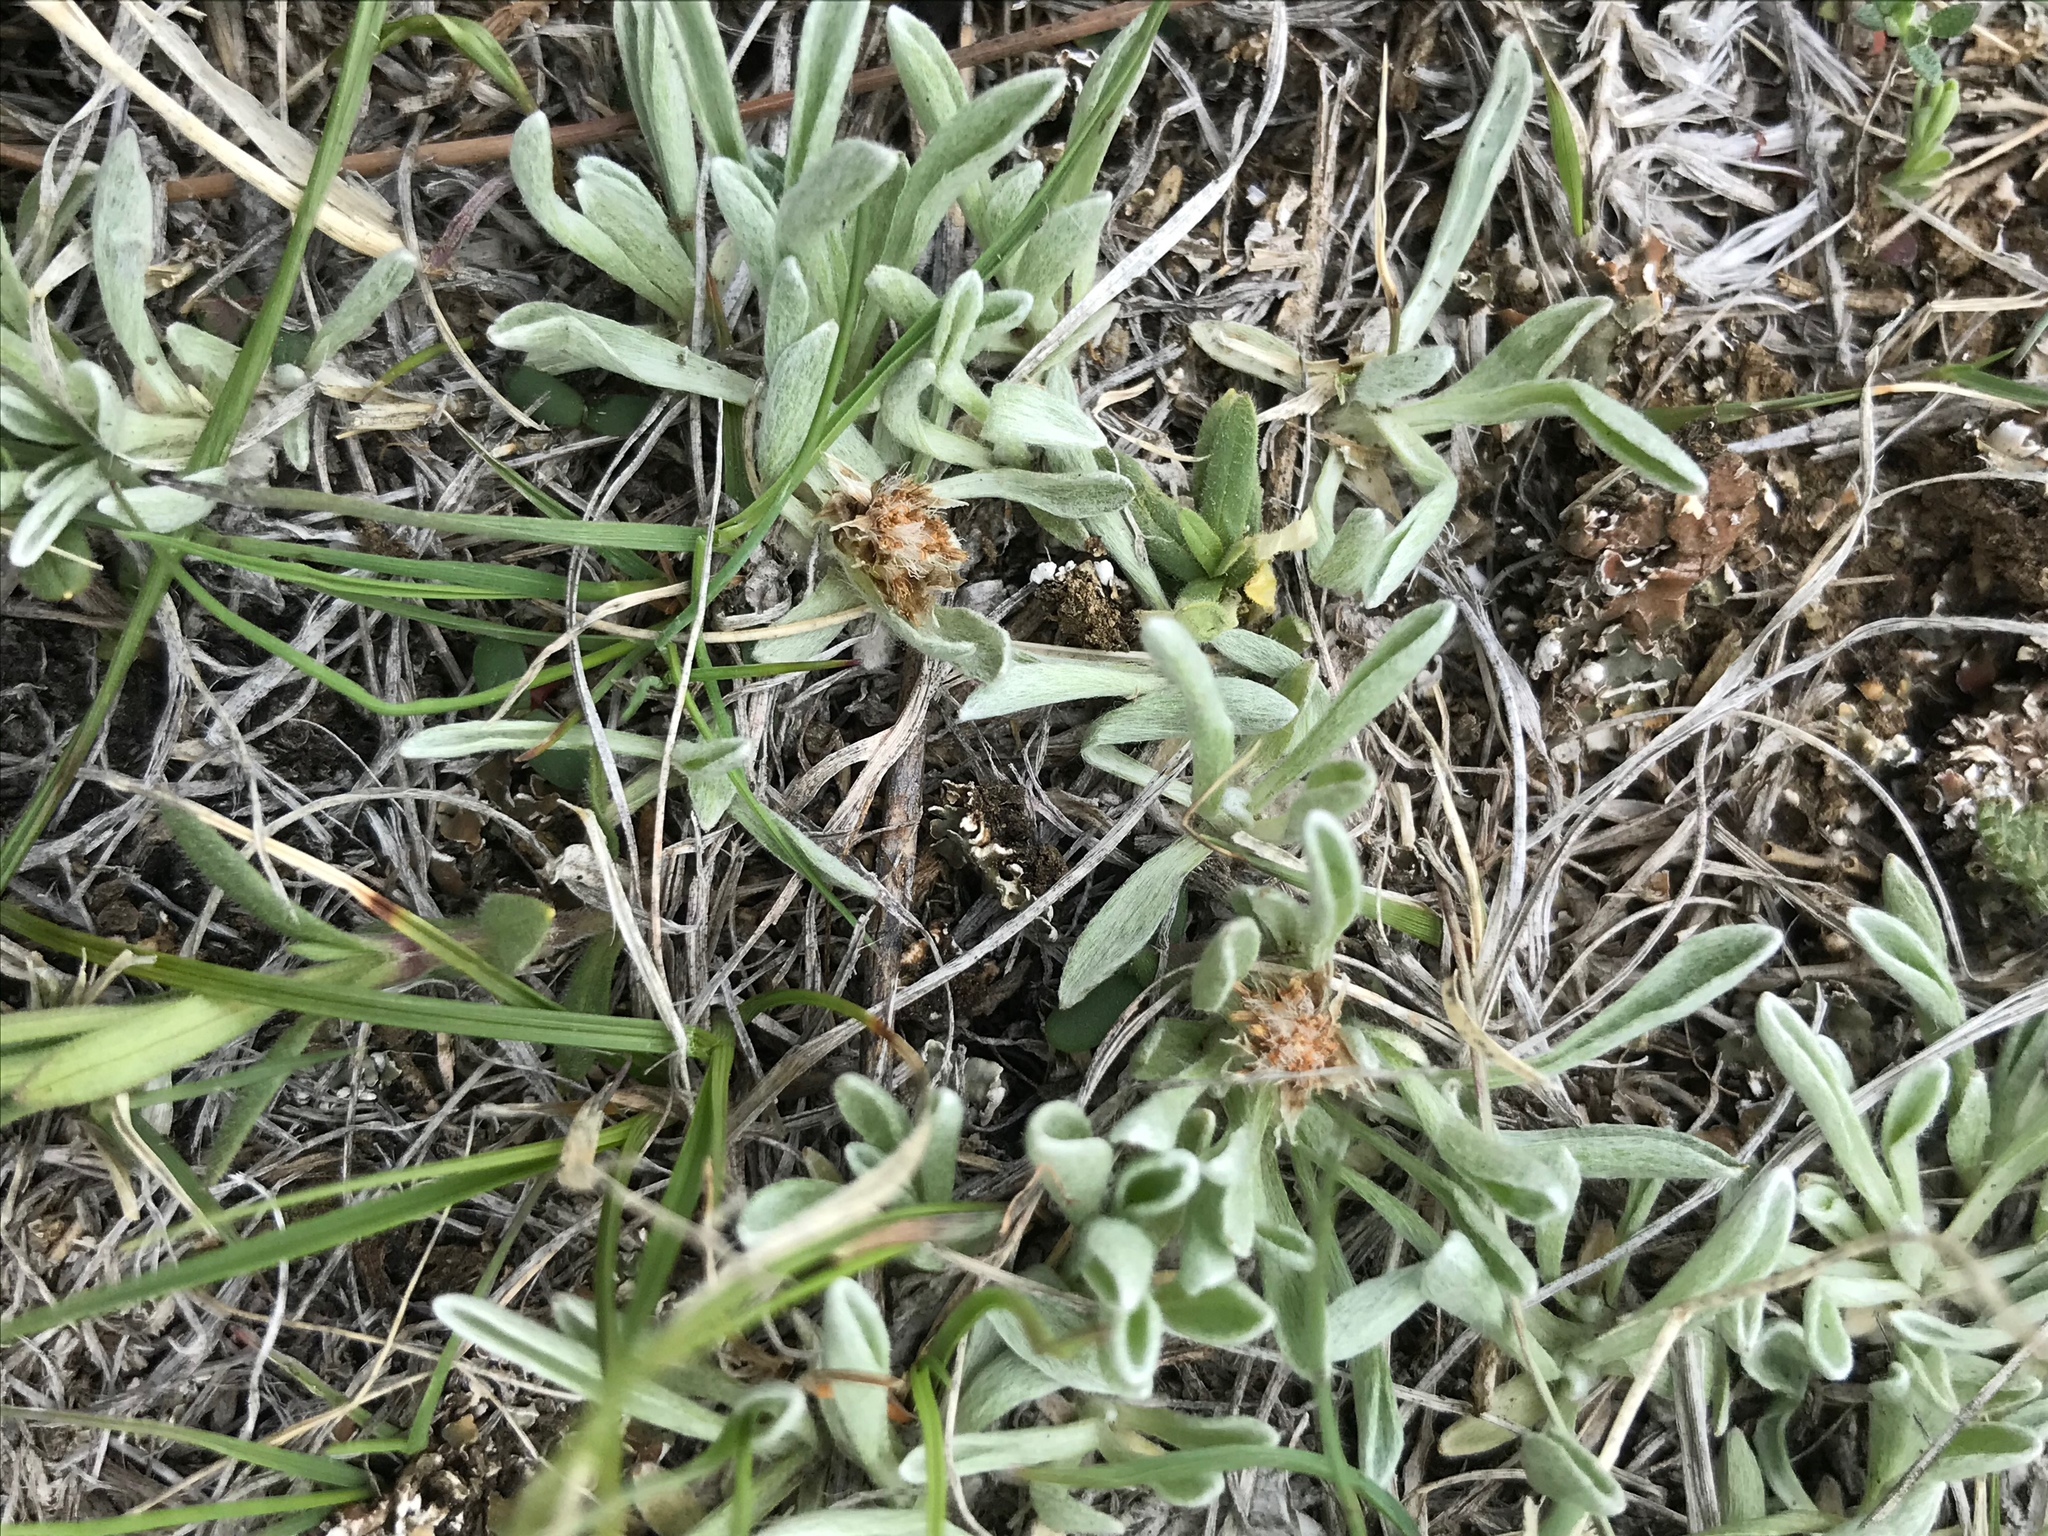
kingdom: Plantae
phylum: Tracheophyta
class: Magnoliopsida
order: Asterales
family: Asteraceae
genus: Antennaria
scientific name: Antennaria dimorpha
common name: Cushion pussytoes
